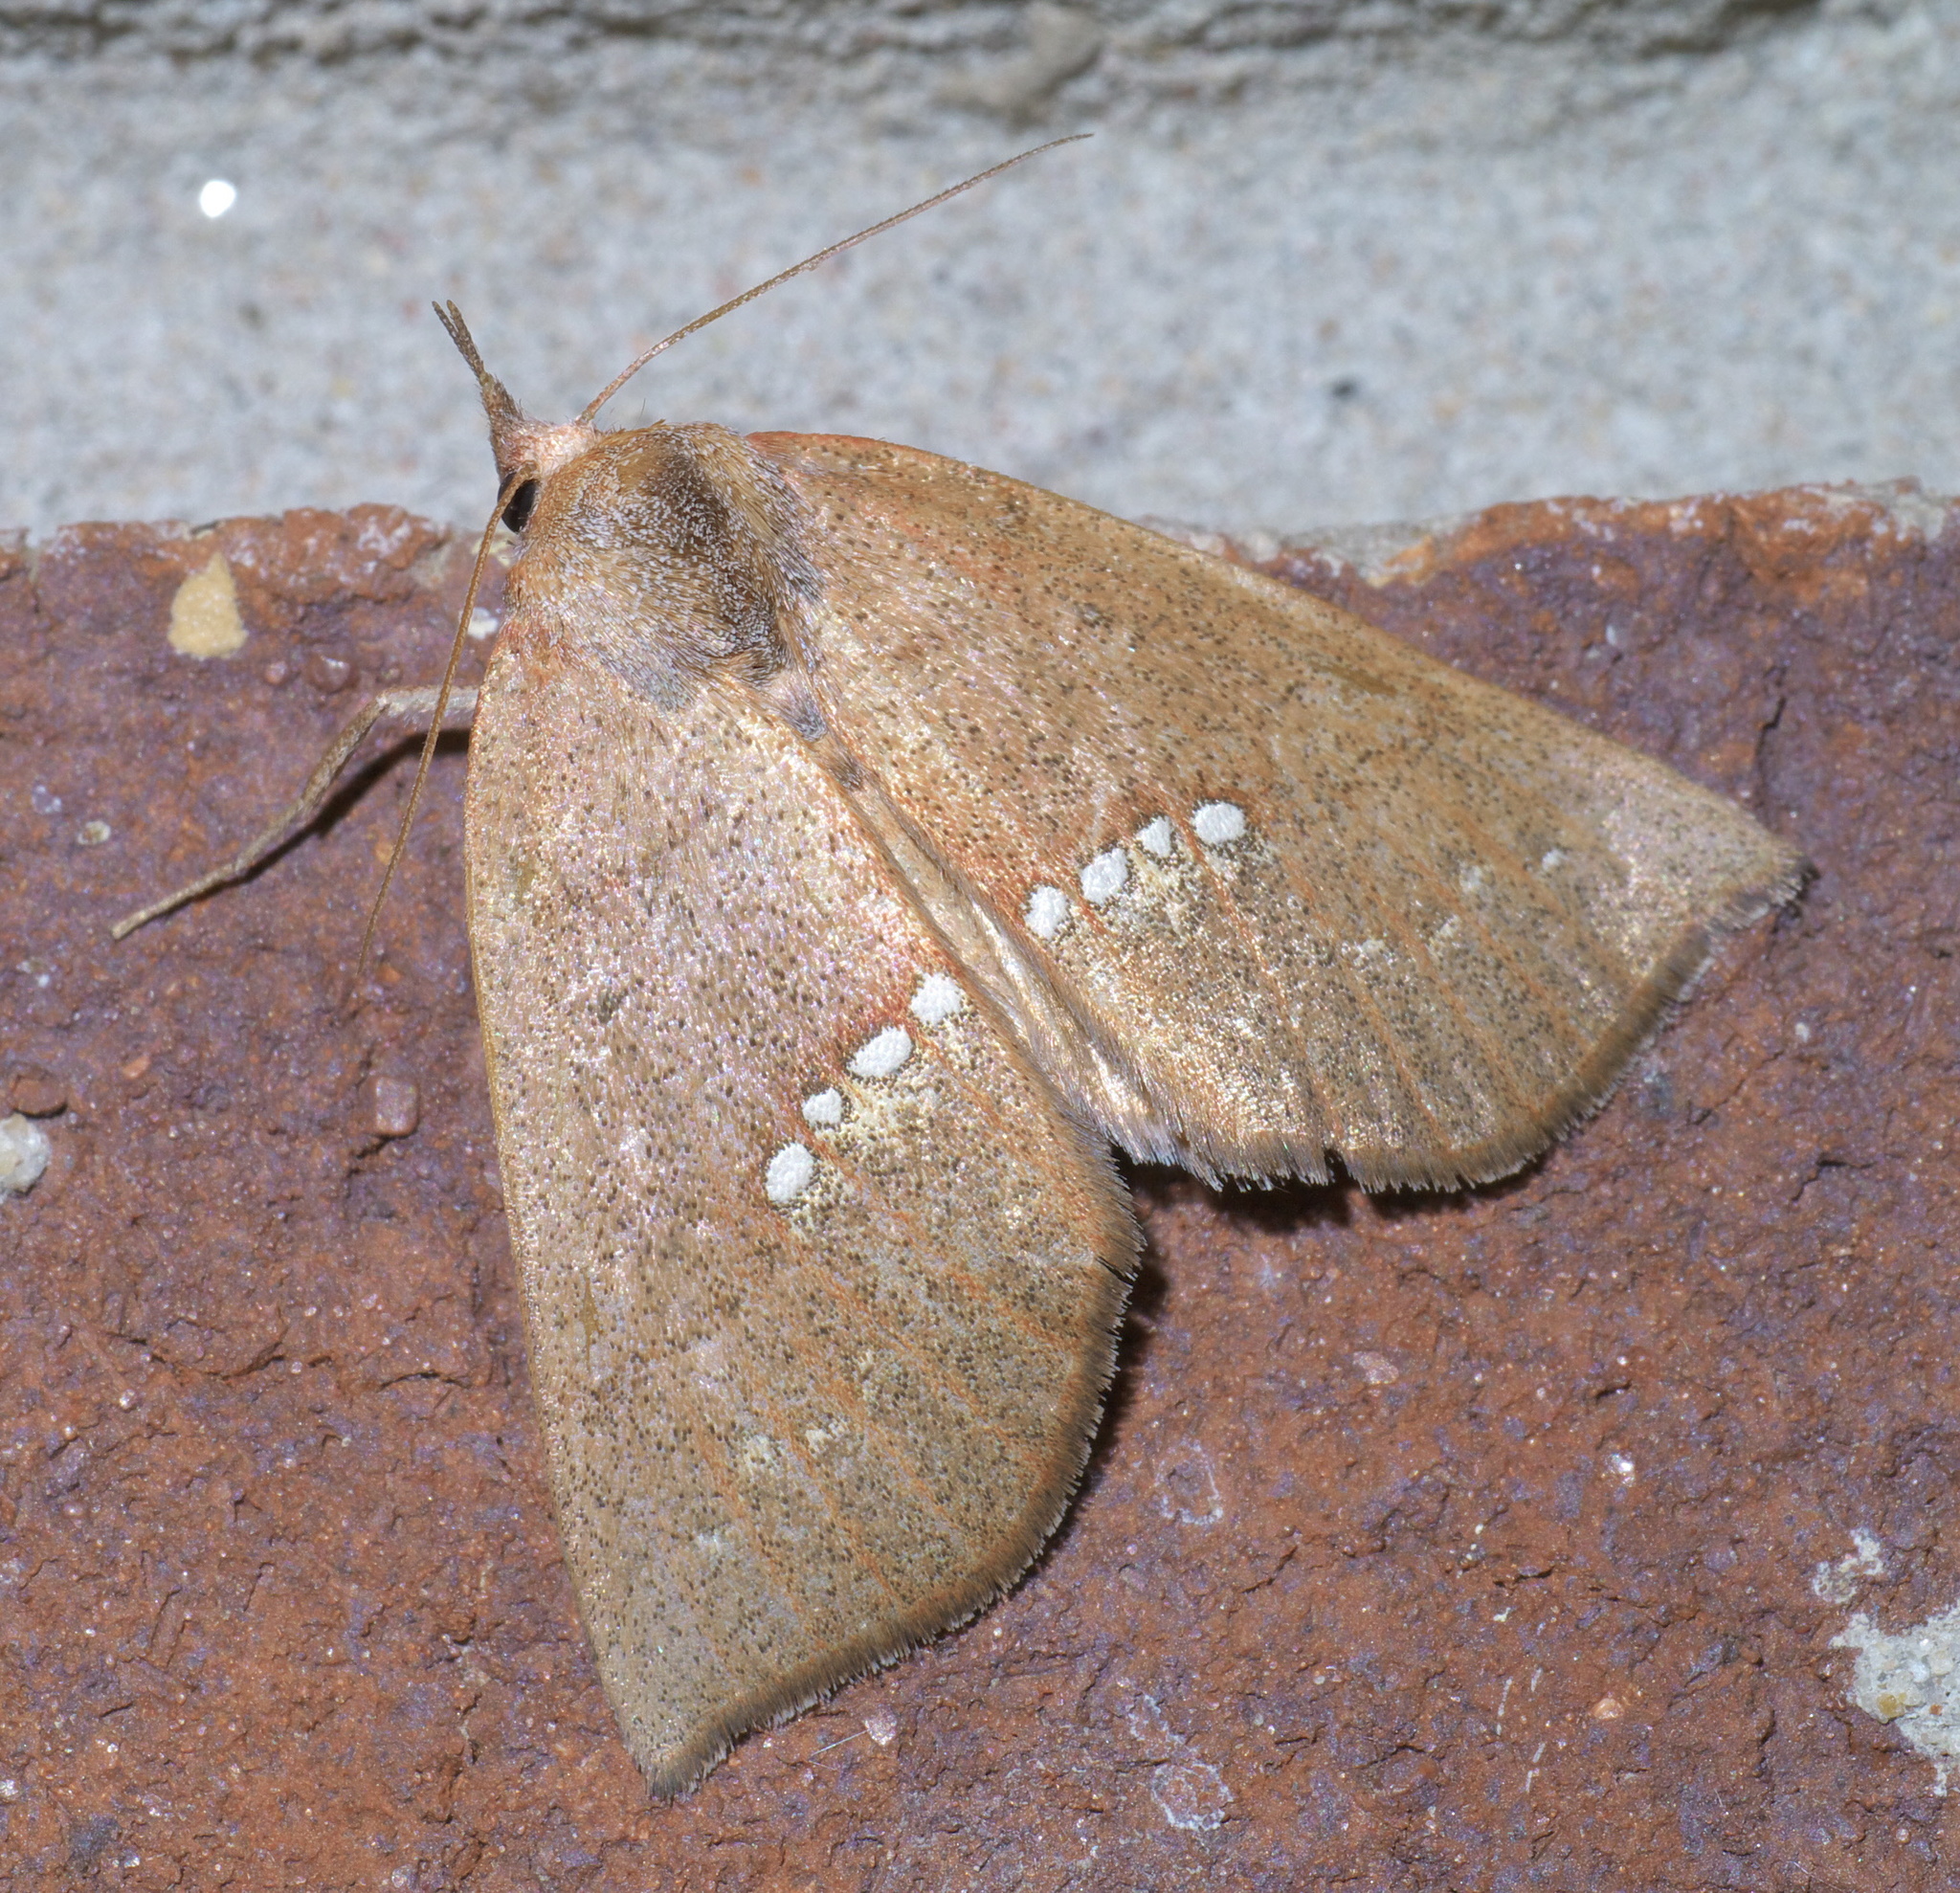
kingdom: Animalia
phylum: Arthropoda
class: Insecta
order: Lepidoptera
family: Erebidae
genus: Hypsoropha
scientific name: Hypsoropha monilis
